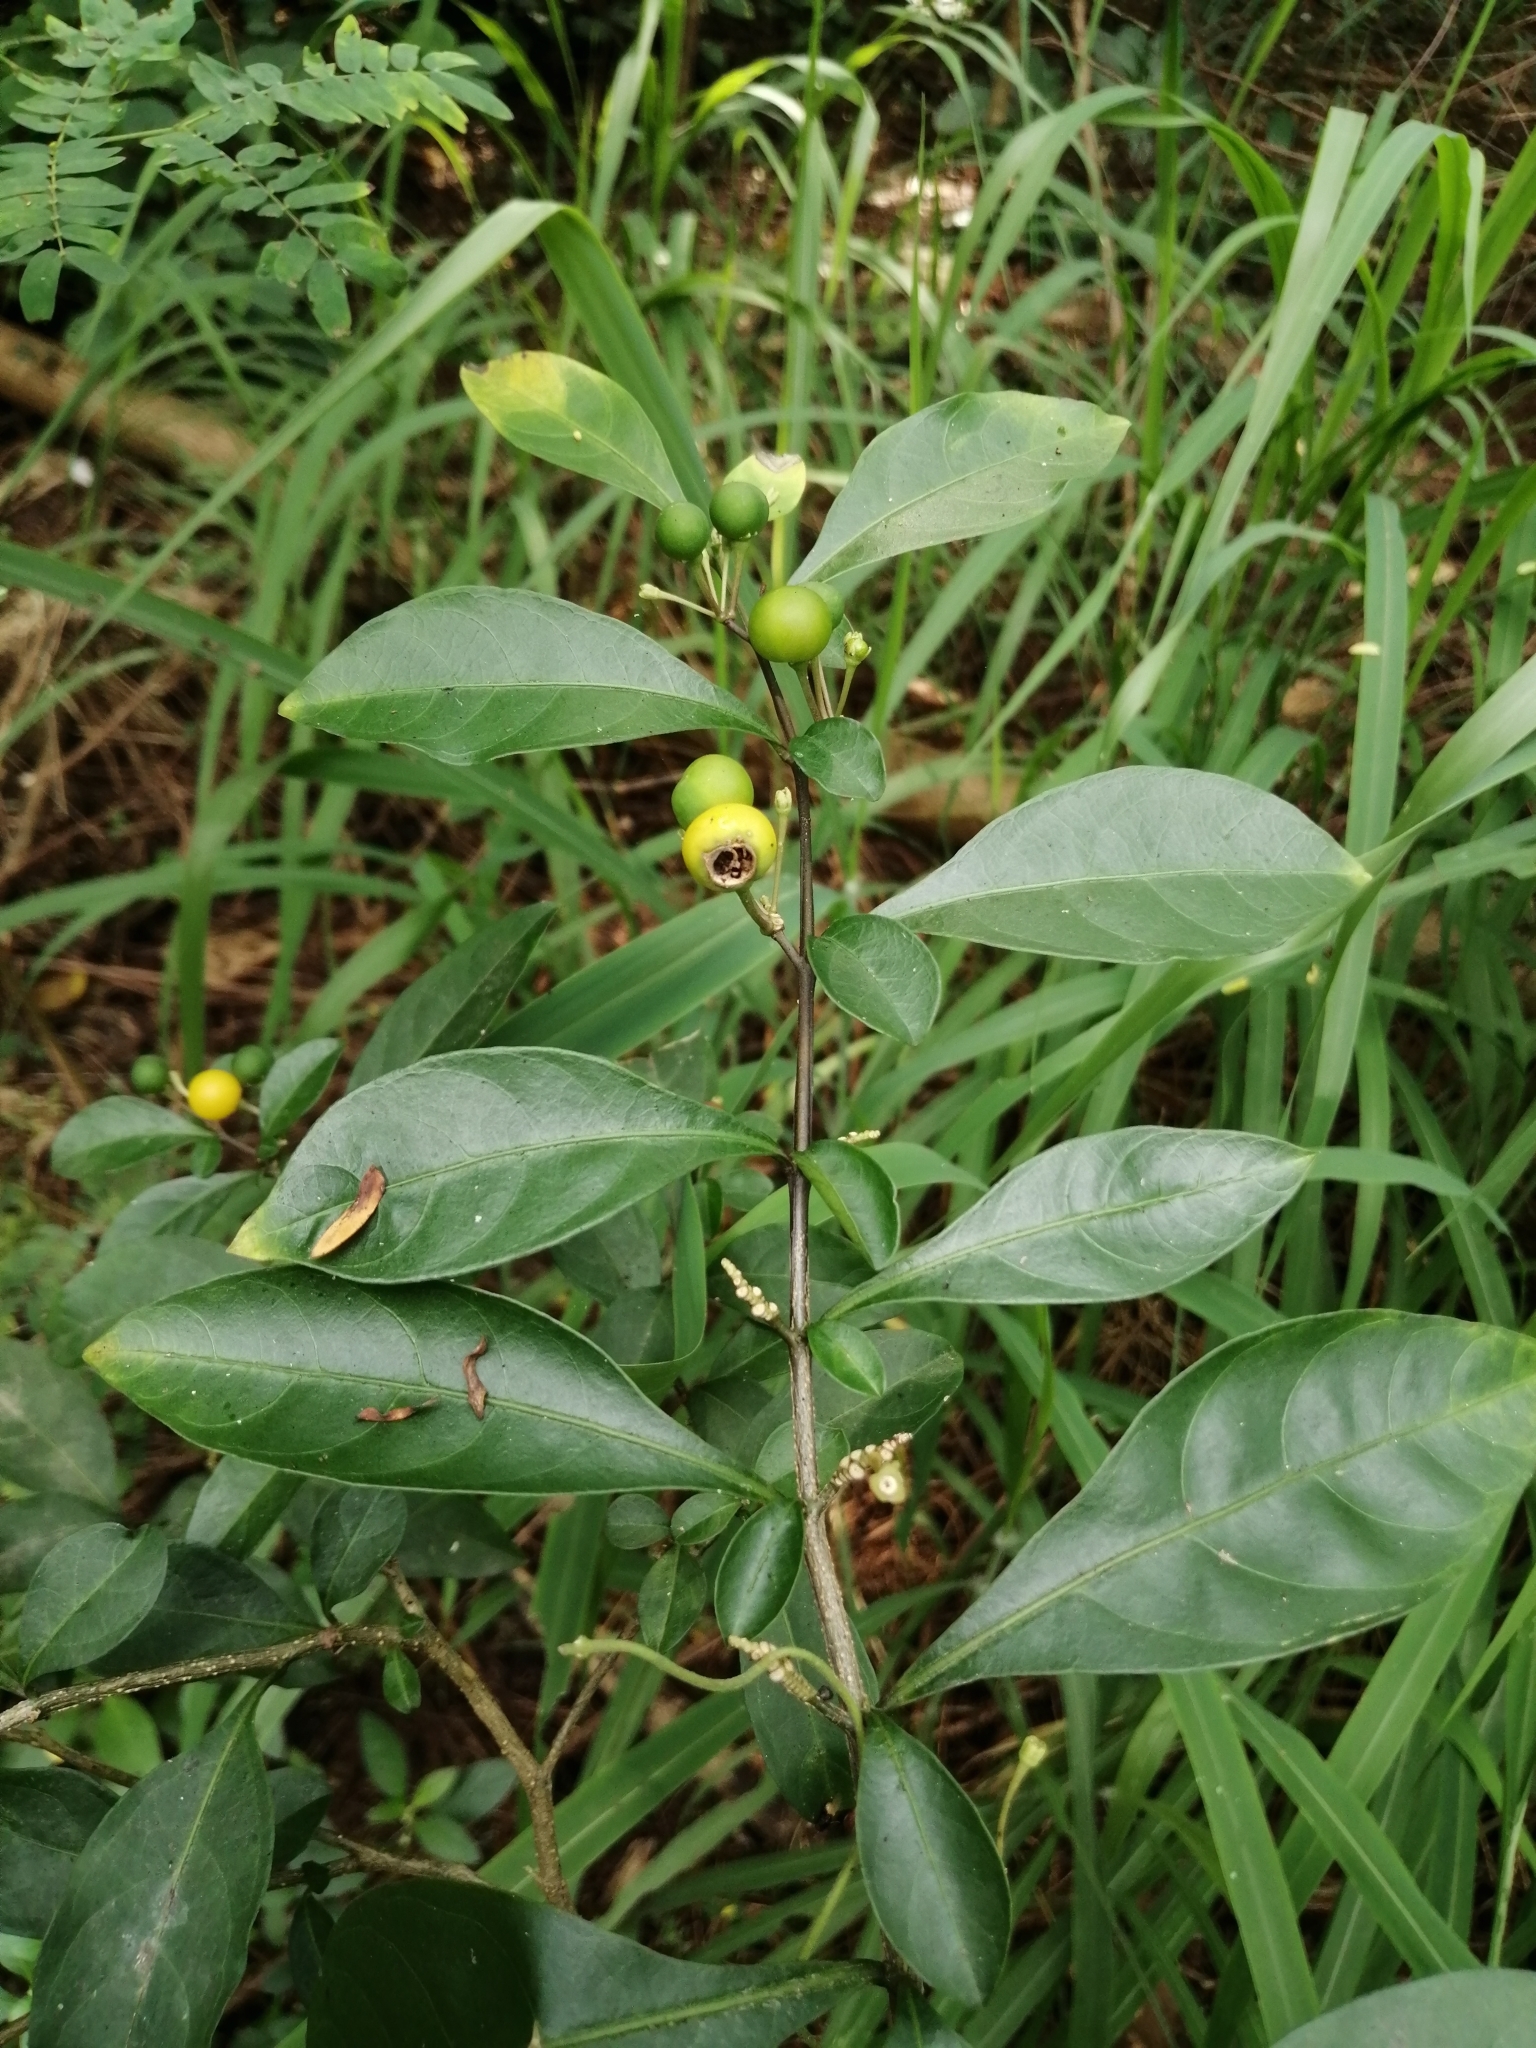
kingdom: Plantae
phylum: Tracheophyta
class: Magnoliopsida
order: Solanales
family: Solanaceae
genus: Solanum
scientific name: Solanum diphyllum
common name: Twoleaf nightshade
